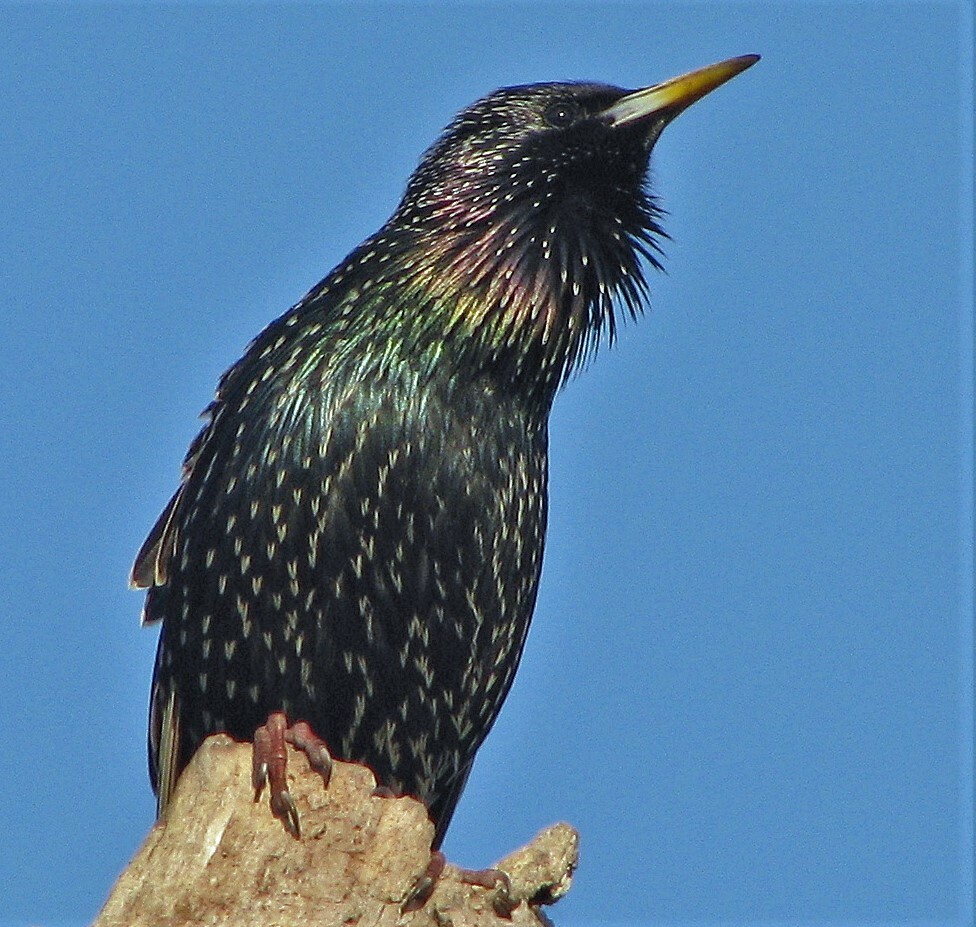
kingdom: Animalia
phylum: Chordata
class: Aves
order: Passeriformes
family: Sturnidae
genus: Sturnus
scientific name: Sturnus vulgaris
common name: Common starling
